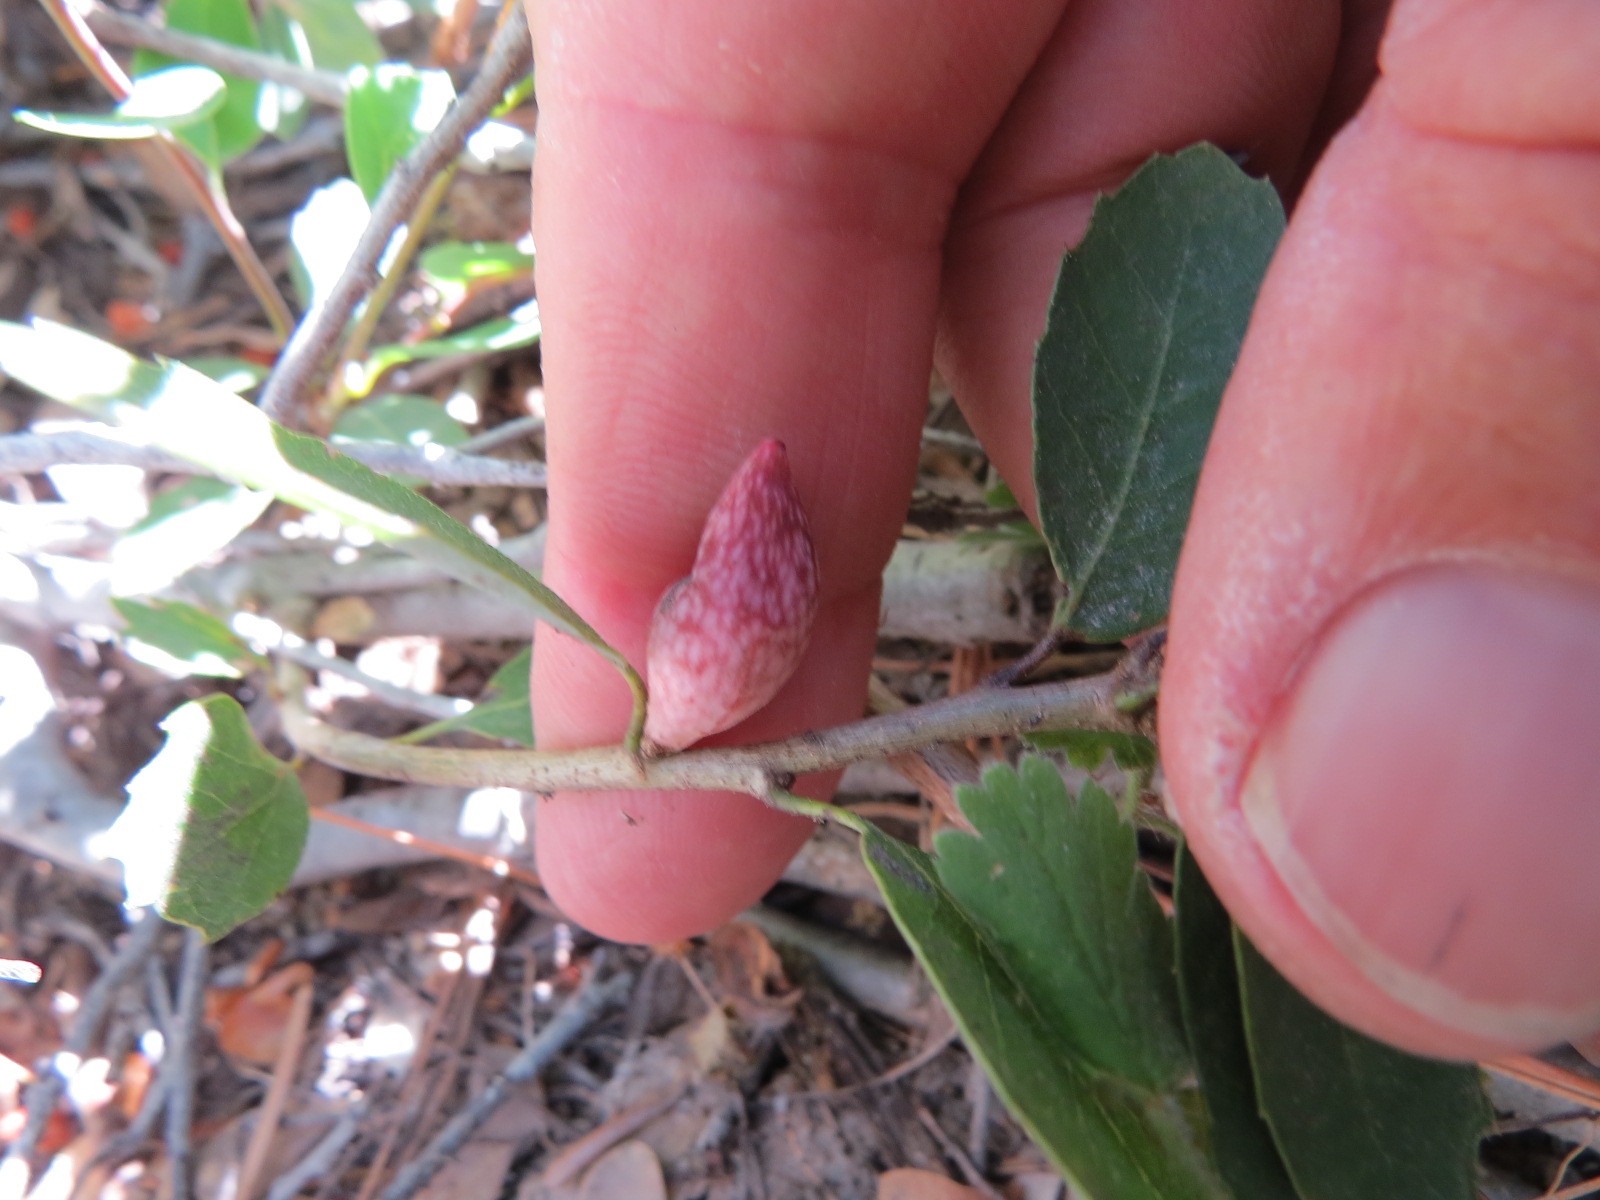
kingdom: Animalia
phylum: Arthropoda
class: Insecta
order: Hymenoptera
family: Cynipidae
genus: Heteroecus
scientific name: Heteroecus pacificus
